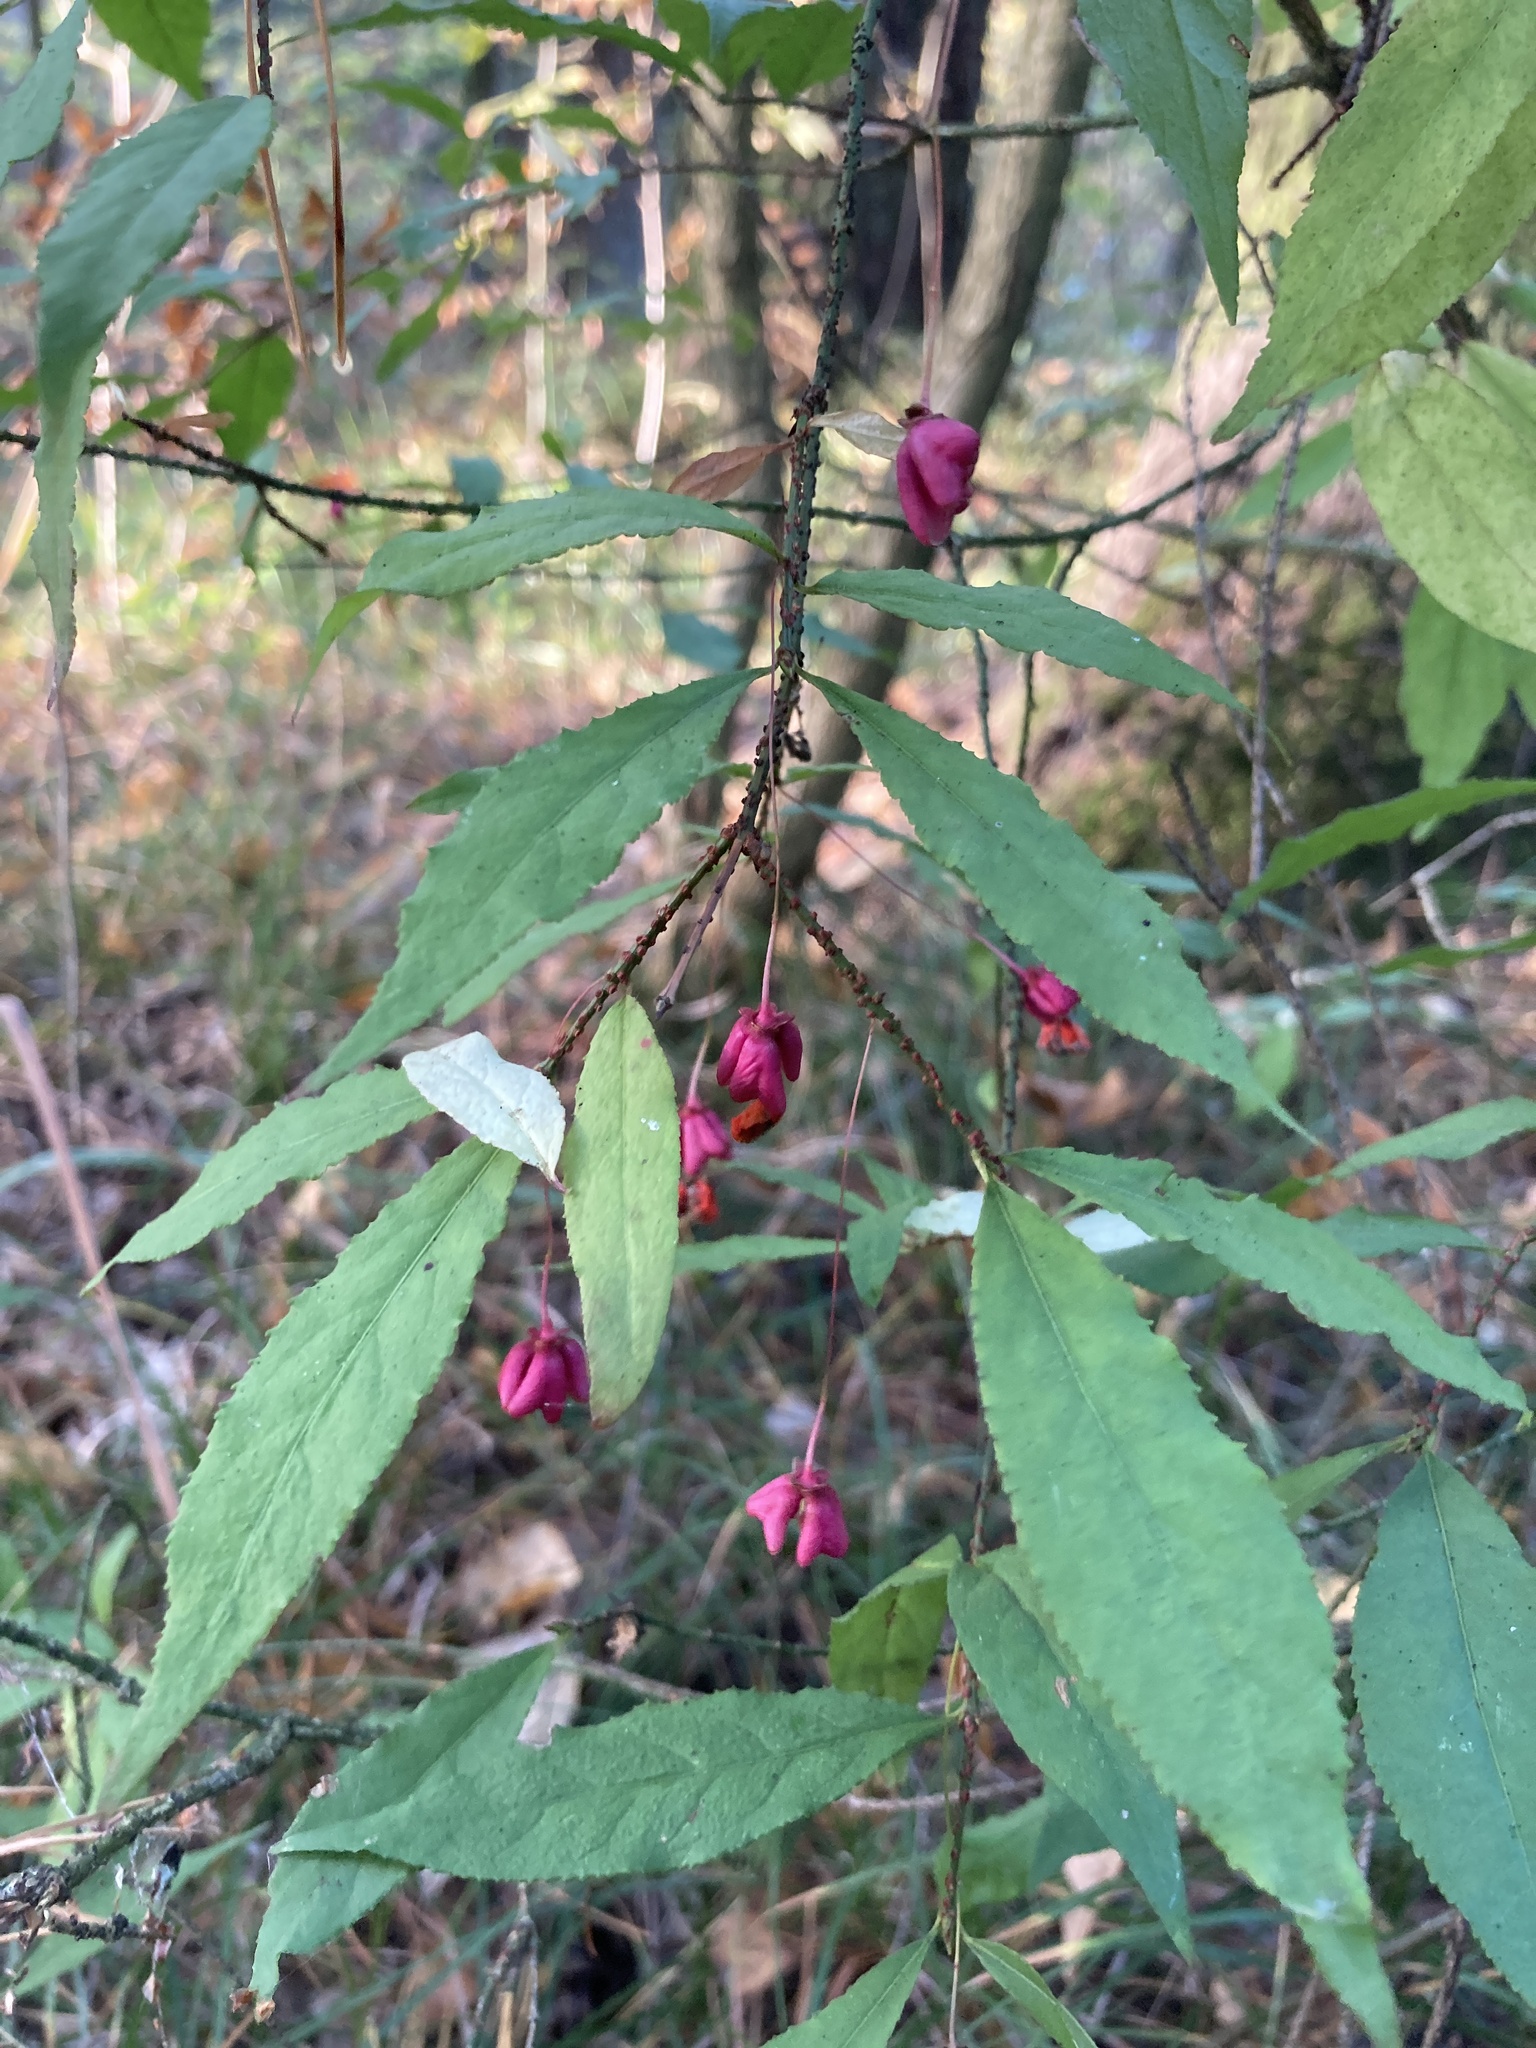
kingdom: Plantae
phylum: Tracheophyta
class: Magnoliopsida
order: Celastrales
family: Celastraceae
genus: Euonymus
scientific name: Euonymus verrucosus
